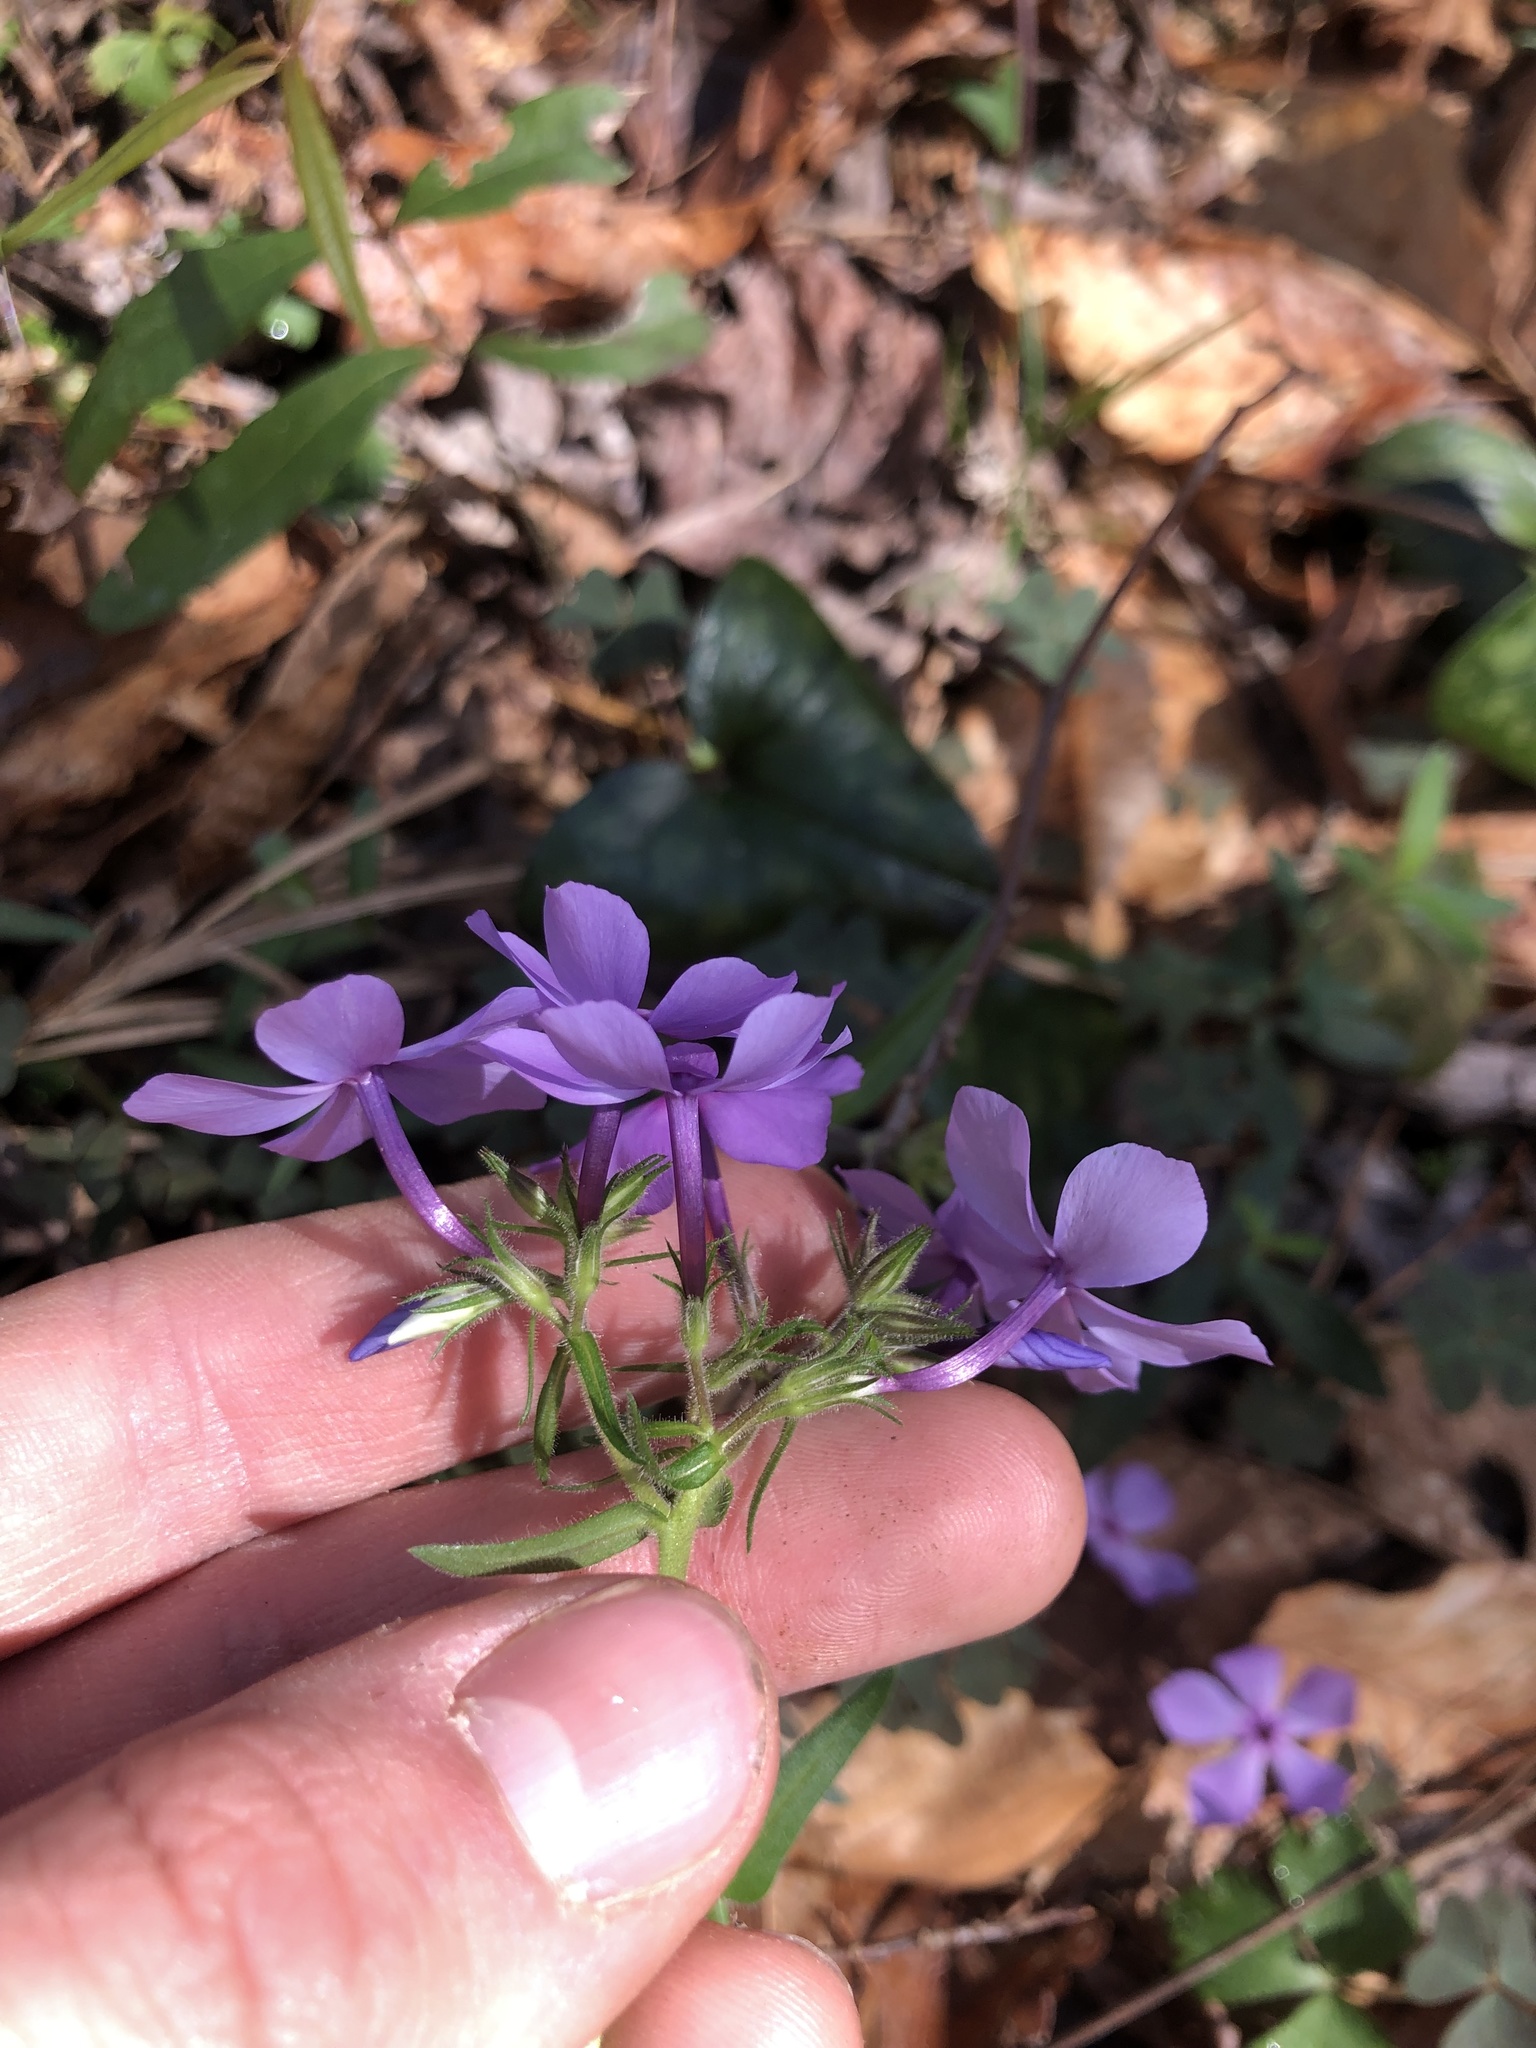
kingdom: Plantae
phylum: Tracheophyta
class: Magnoliopsida
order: Ericales
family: Polemoniaceae
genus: Phlox
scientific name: Phlox divaricata
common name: Blue phlox
